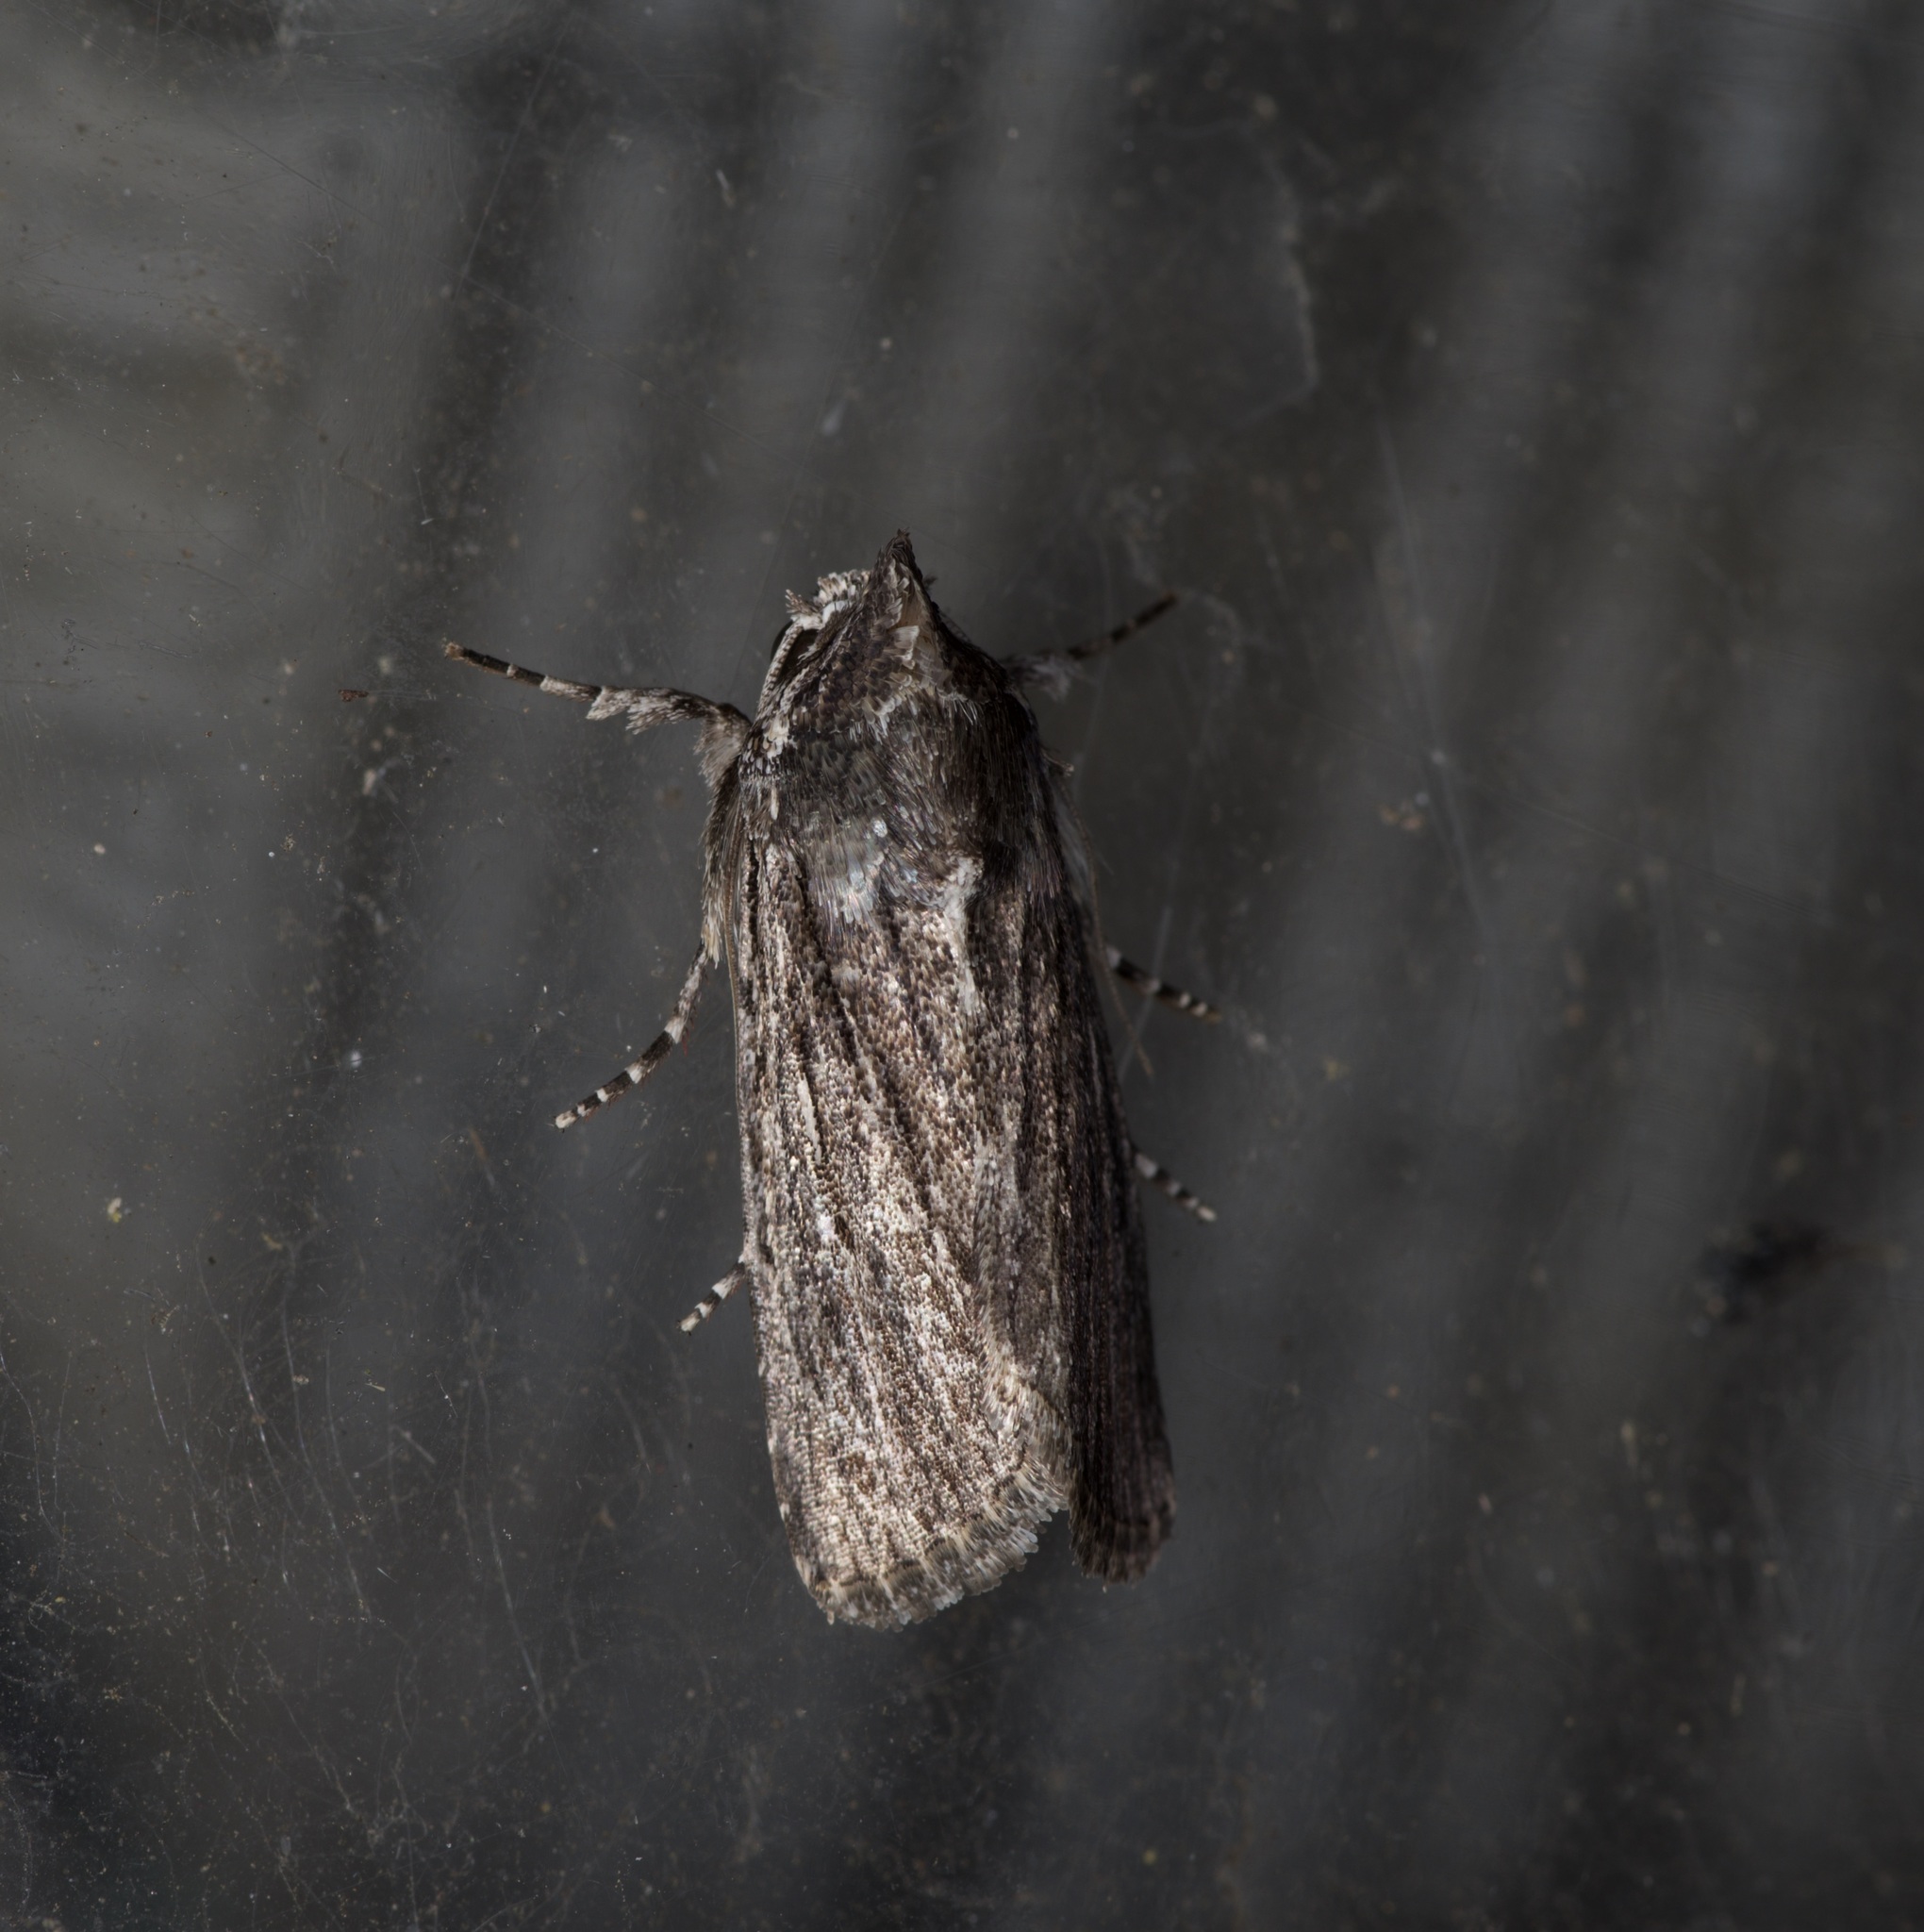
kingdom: Animalia
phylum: Arthropoda
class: Insecta
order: Lepidoptera
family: Noctuidae
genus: Neogalea
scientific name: Neogalea sunia
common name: Lantana stick caterpillar
